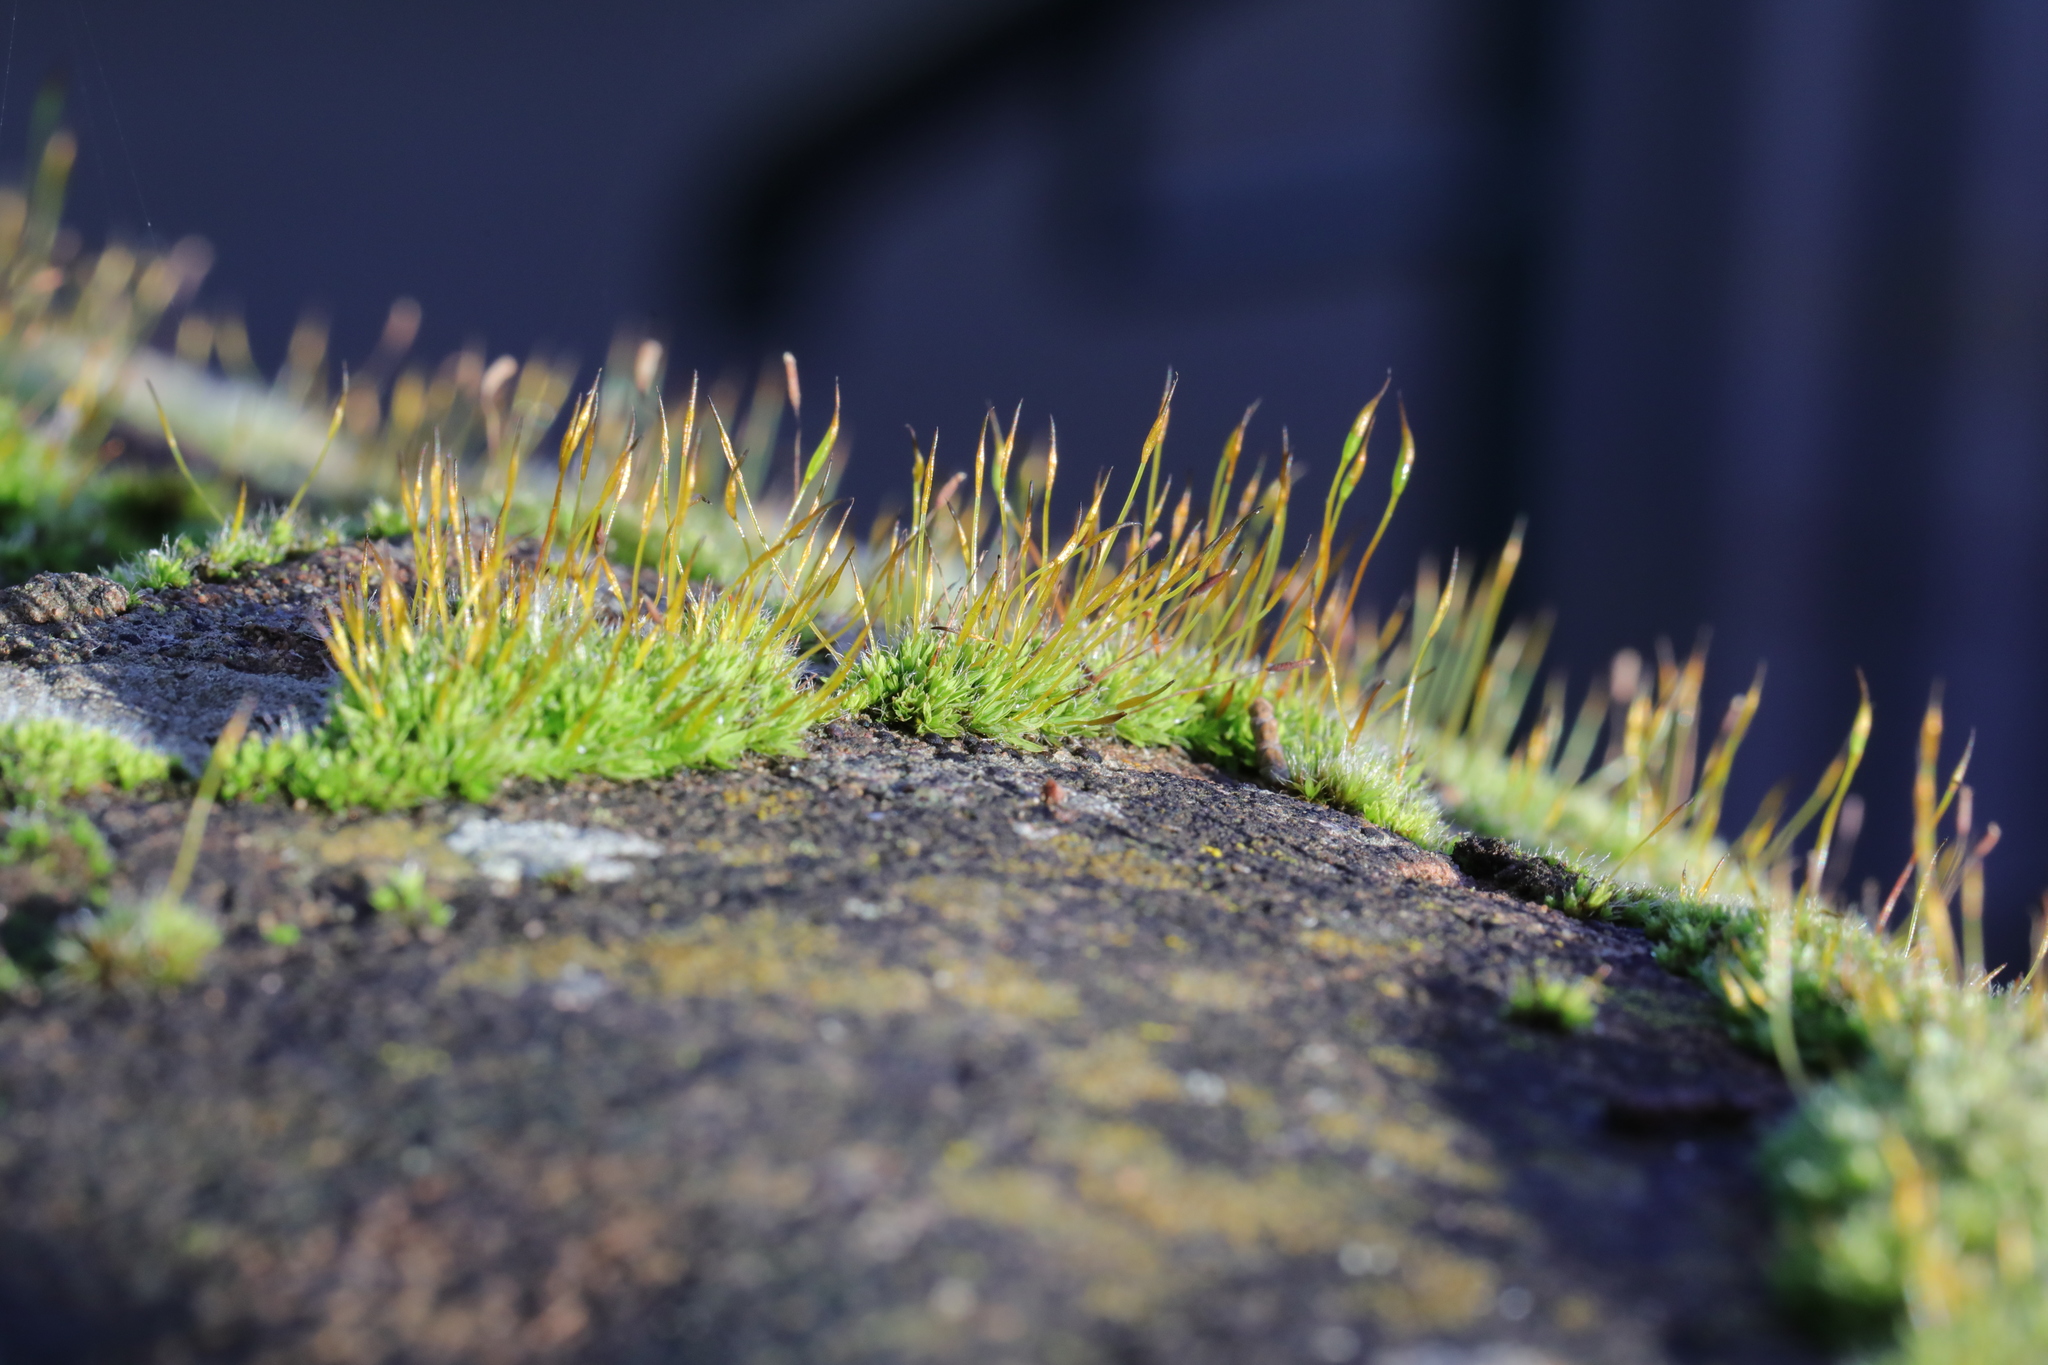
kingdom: Plantae
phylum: Bryophyta
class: Bryopsida
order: Pottiales
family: Pottiaceae
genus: Tortula
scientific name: Tortula muralis
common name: Wall screw-moss
